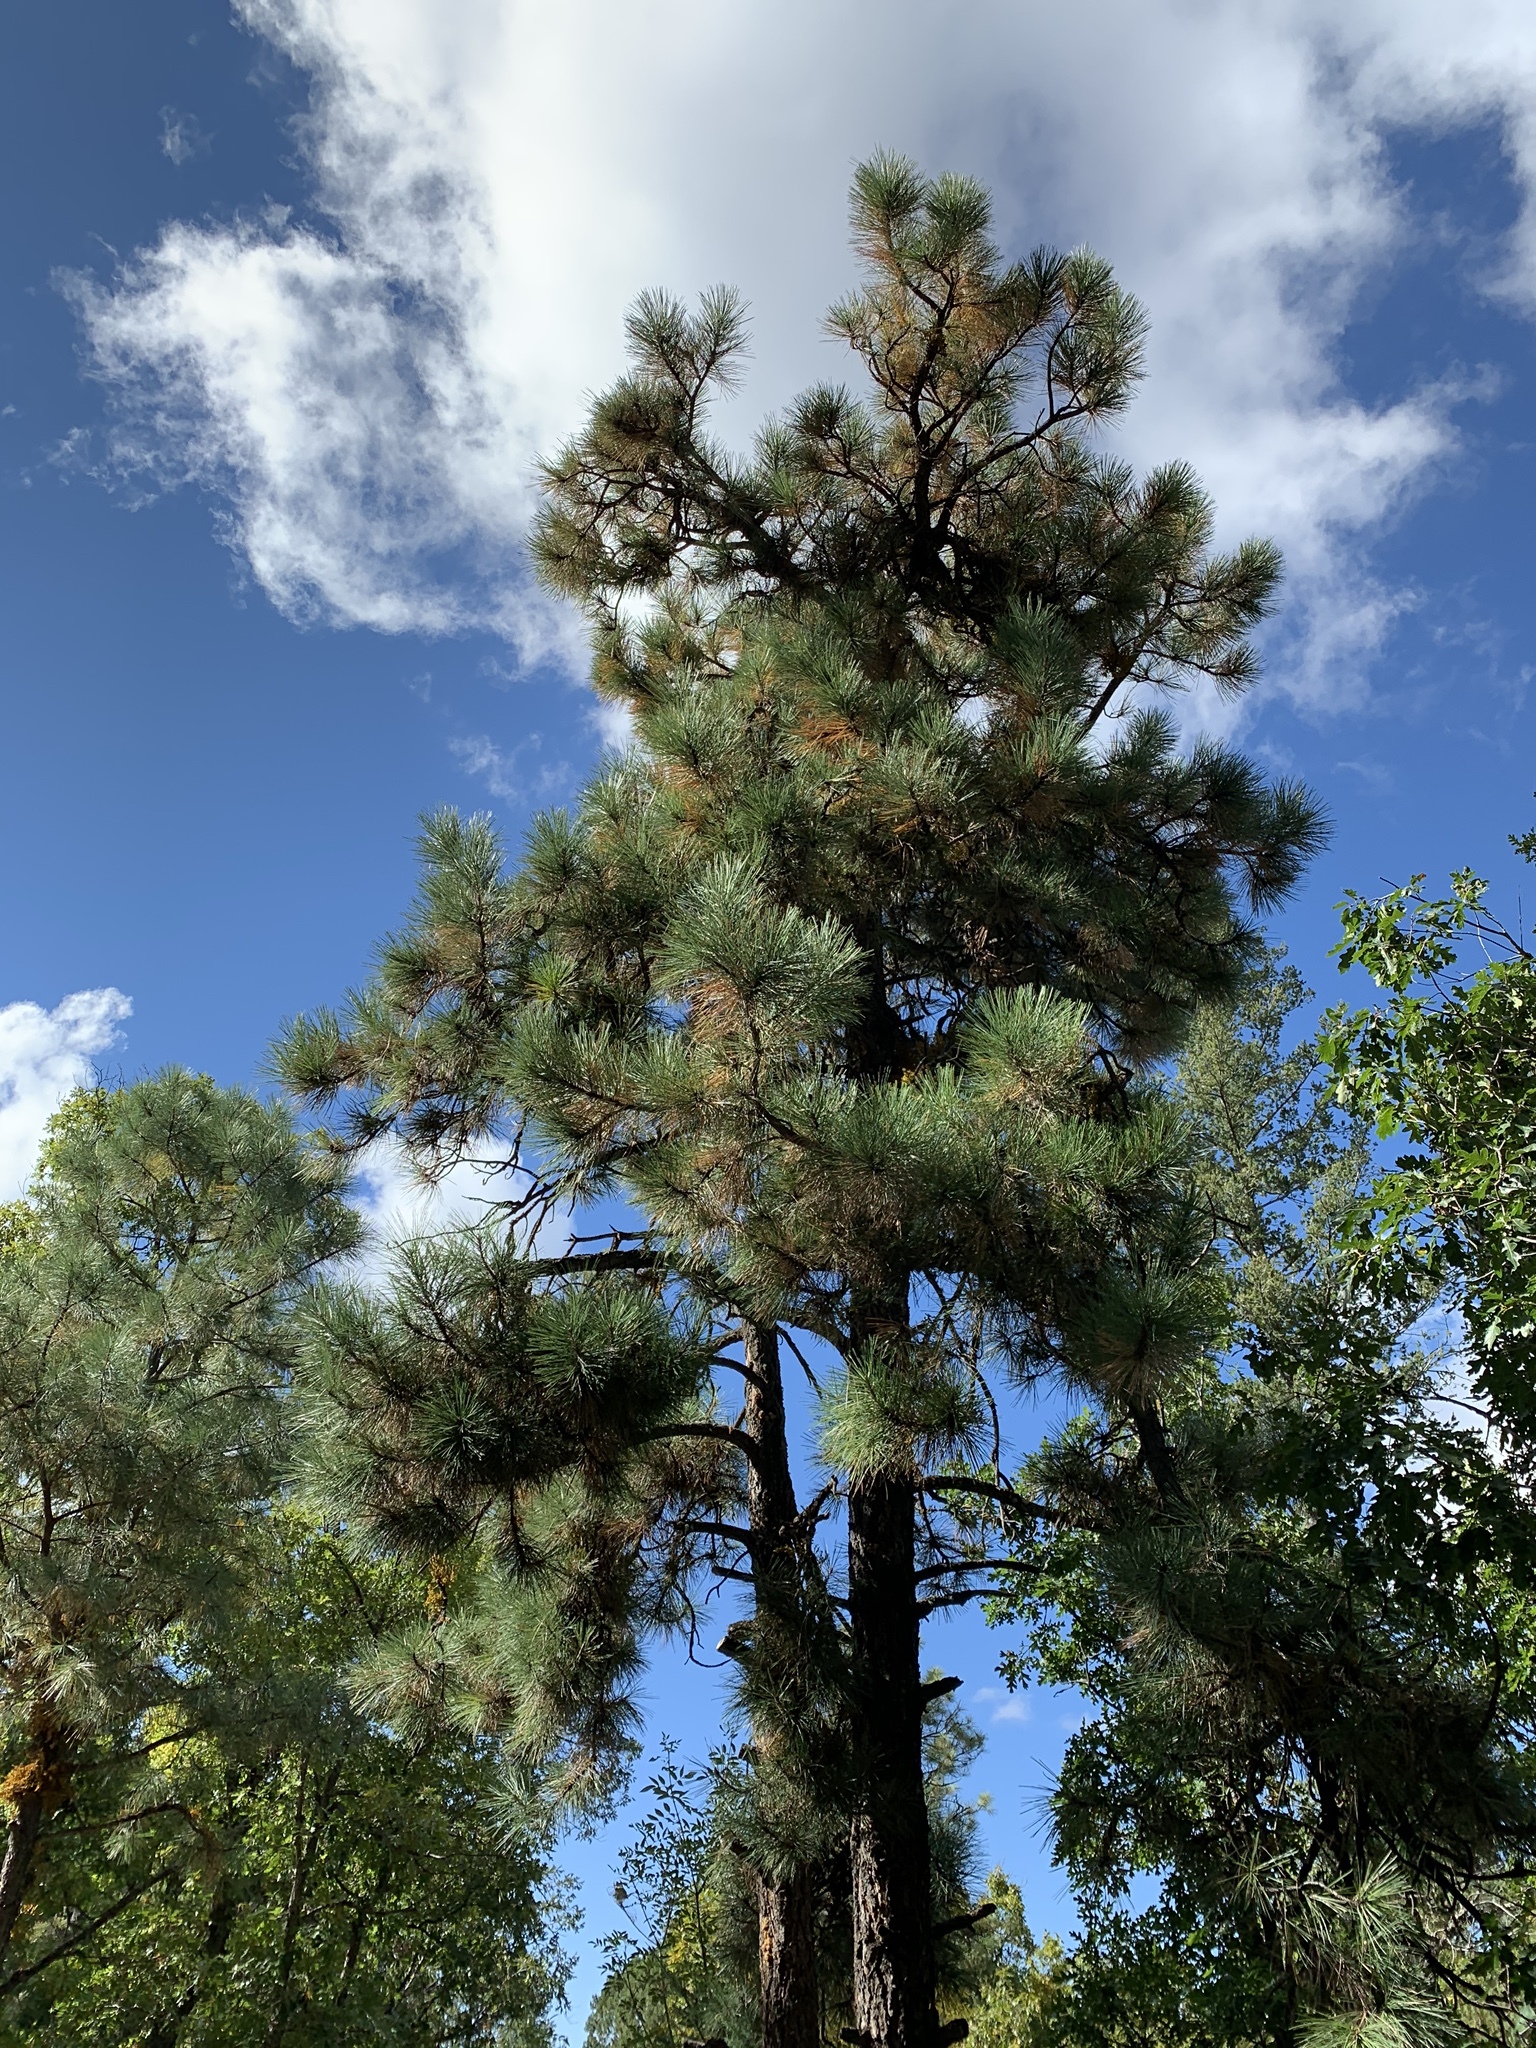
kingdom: Plantae
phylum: Tracheophyta
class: Pinopsida
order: Pinales
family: Pinaceae
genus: Pinus
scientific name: Pinus ponderosa
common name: Western yellow-pine
